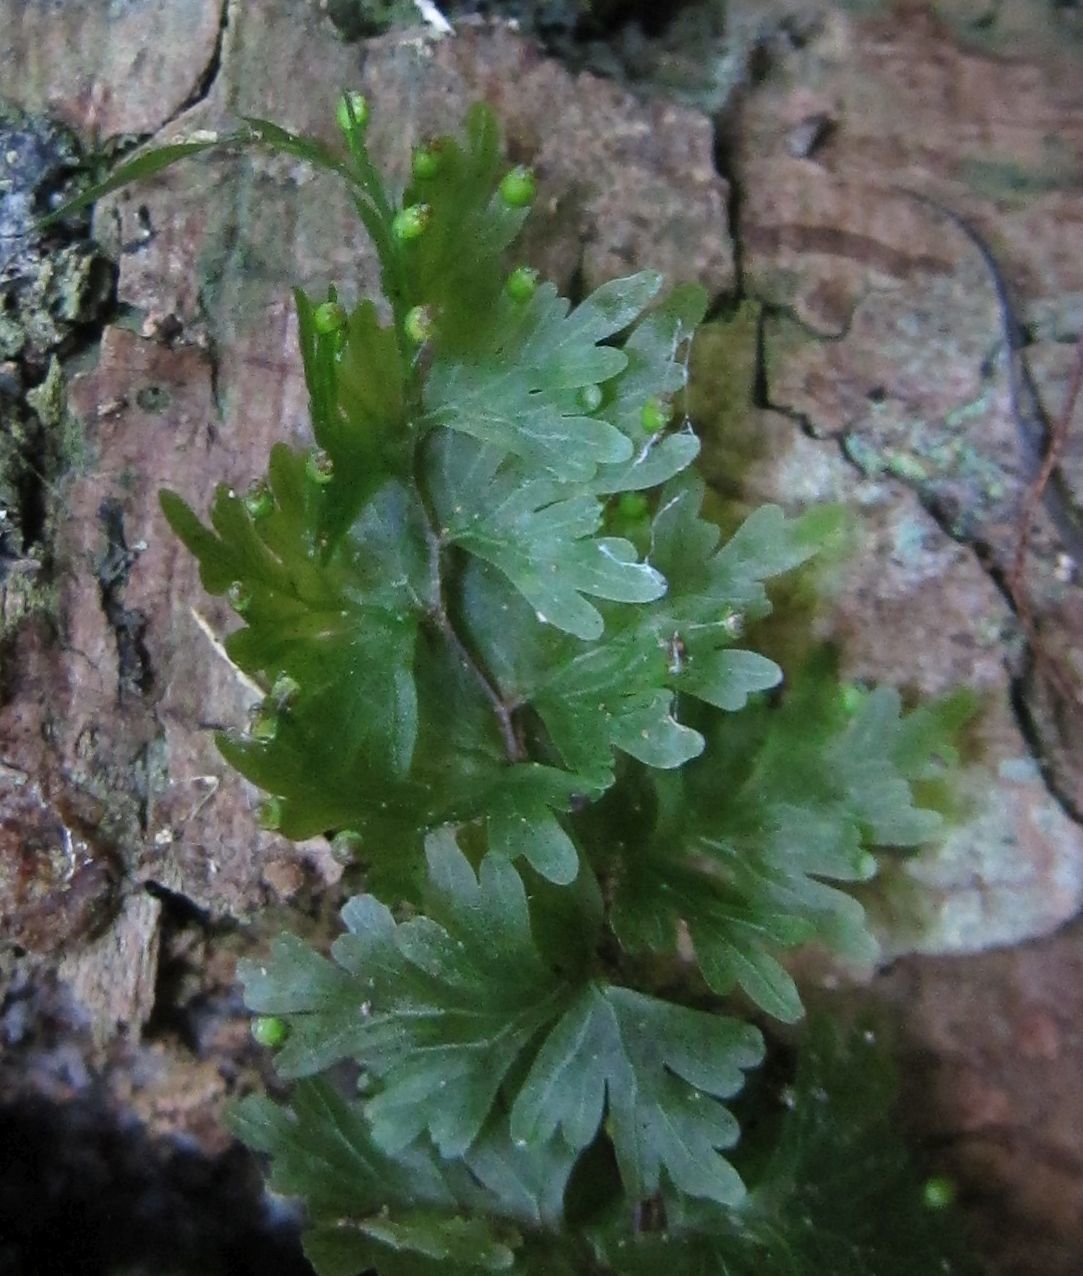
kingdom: Plantae
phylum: Tracheophyta
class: Polypodiopsida
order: Hymenophyllales
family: Hymenophyllaceae
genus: Hymenophyllum
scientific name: Hymenophyllum flabellatum
